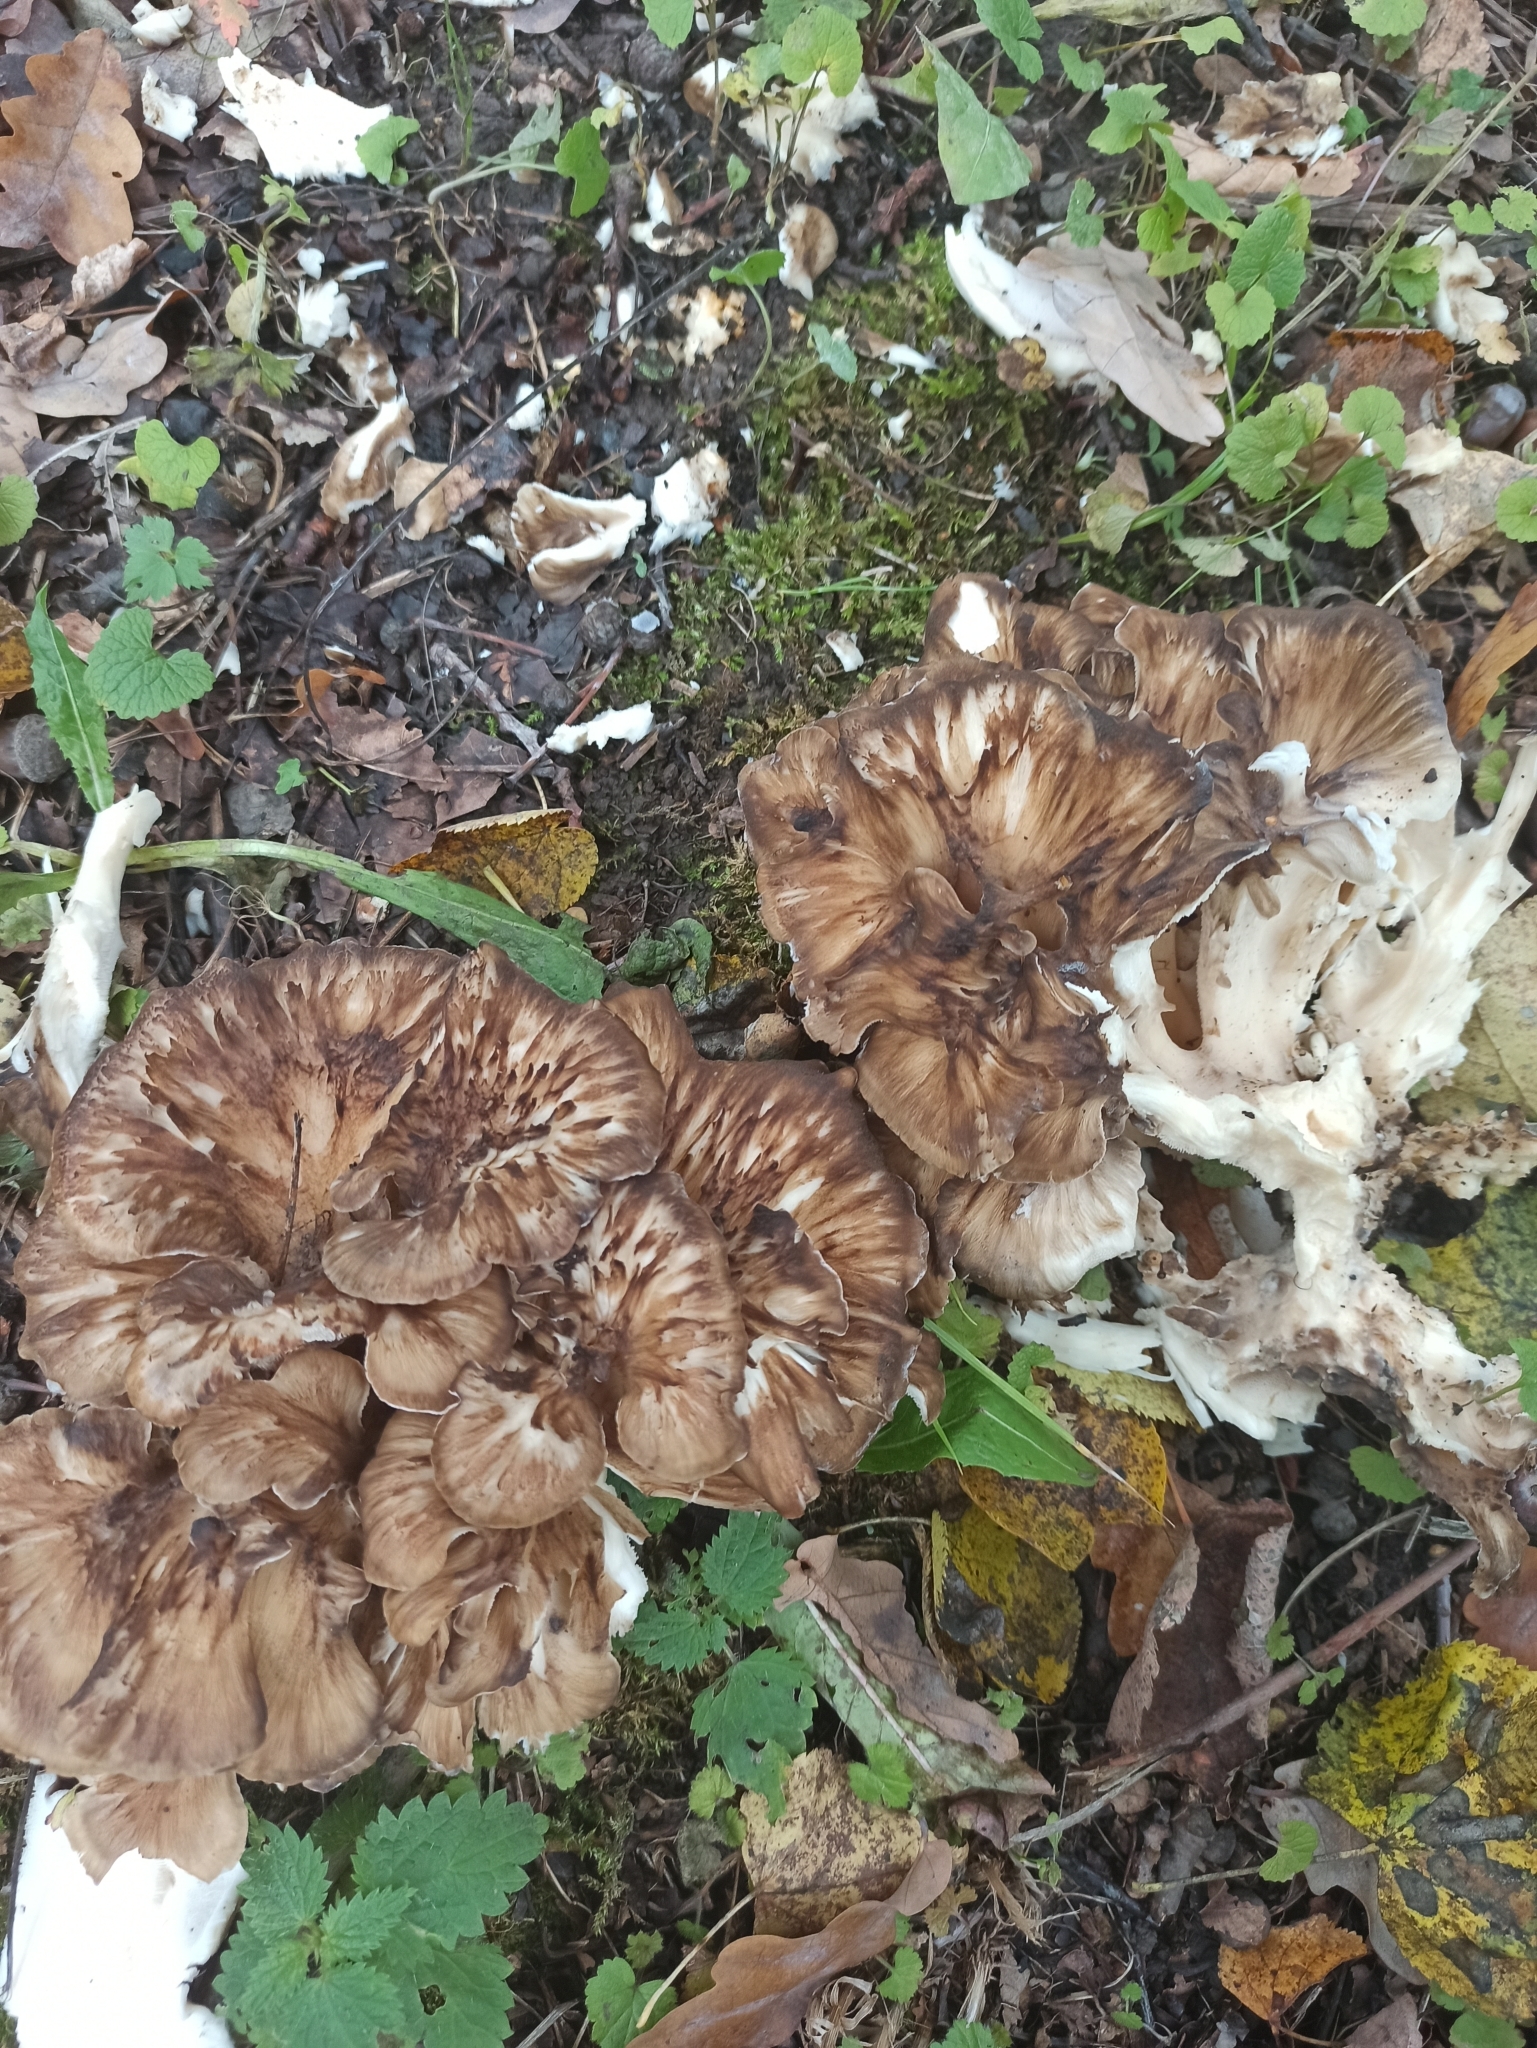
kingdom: Fungi
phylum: Basidiomycota
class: Agaricomycetes
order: Polyporales
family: Grifolaceae
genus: Grifola
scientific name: Grifola frondosa
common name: Hen of the woods
